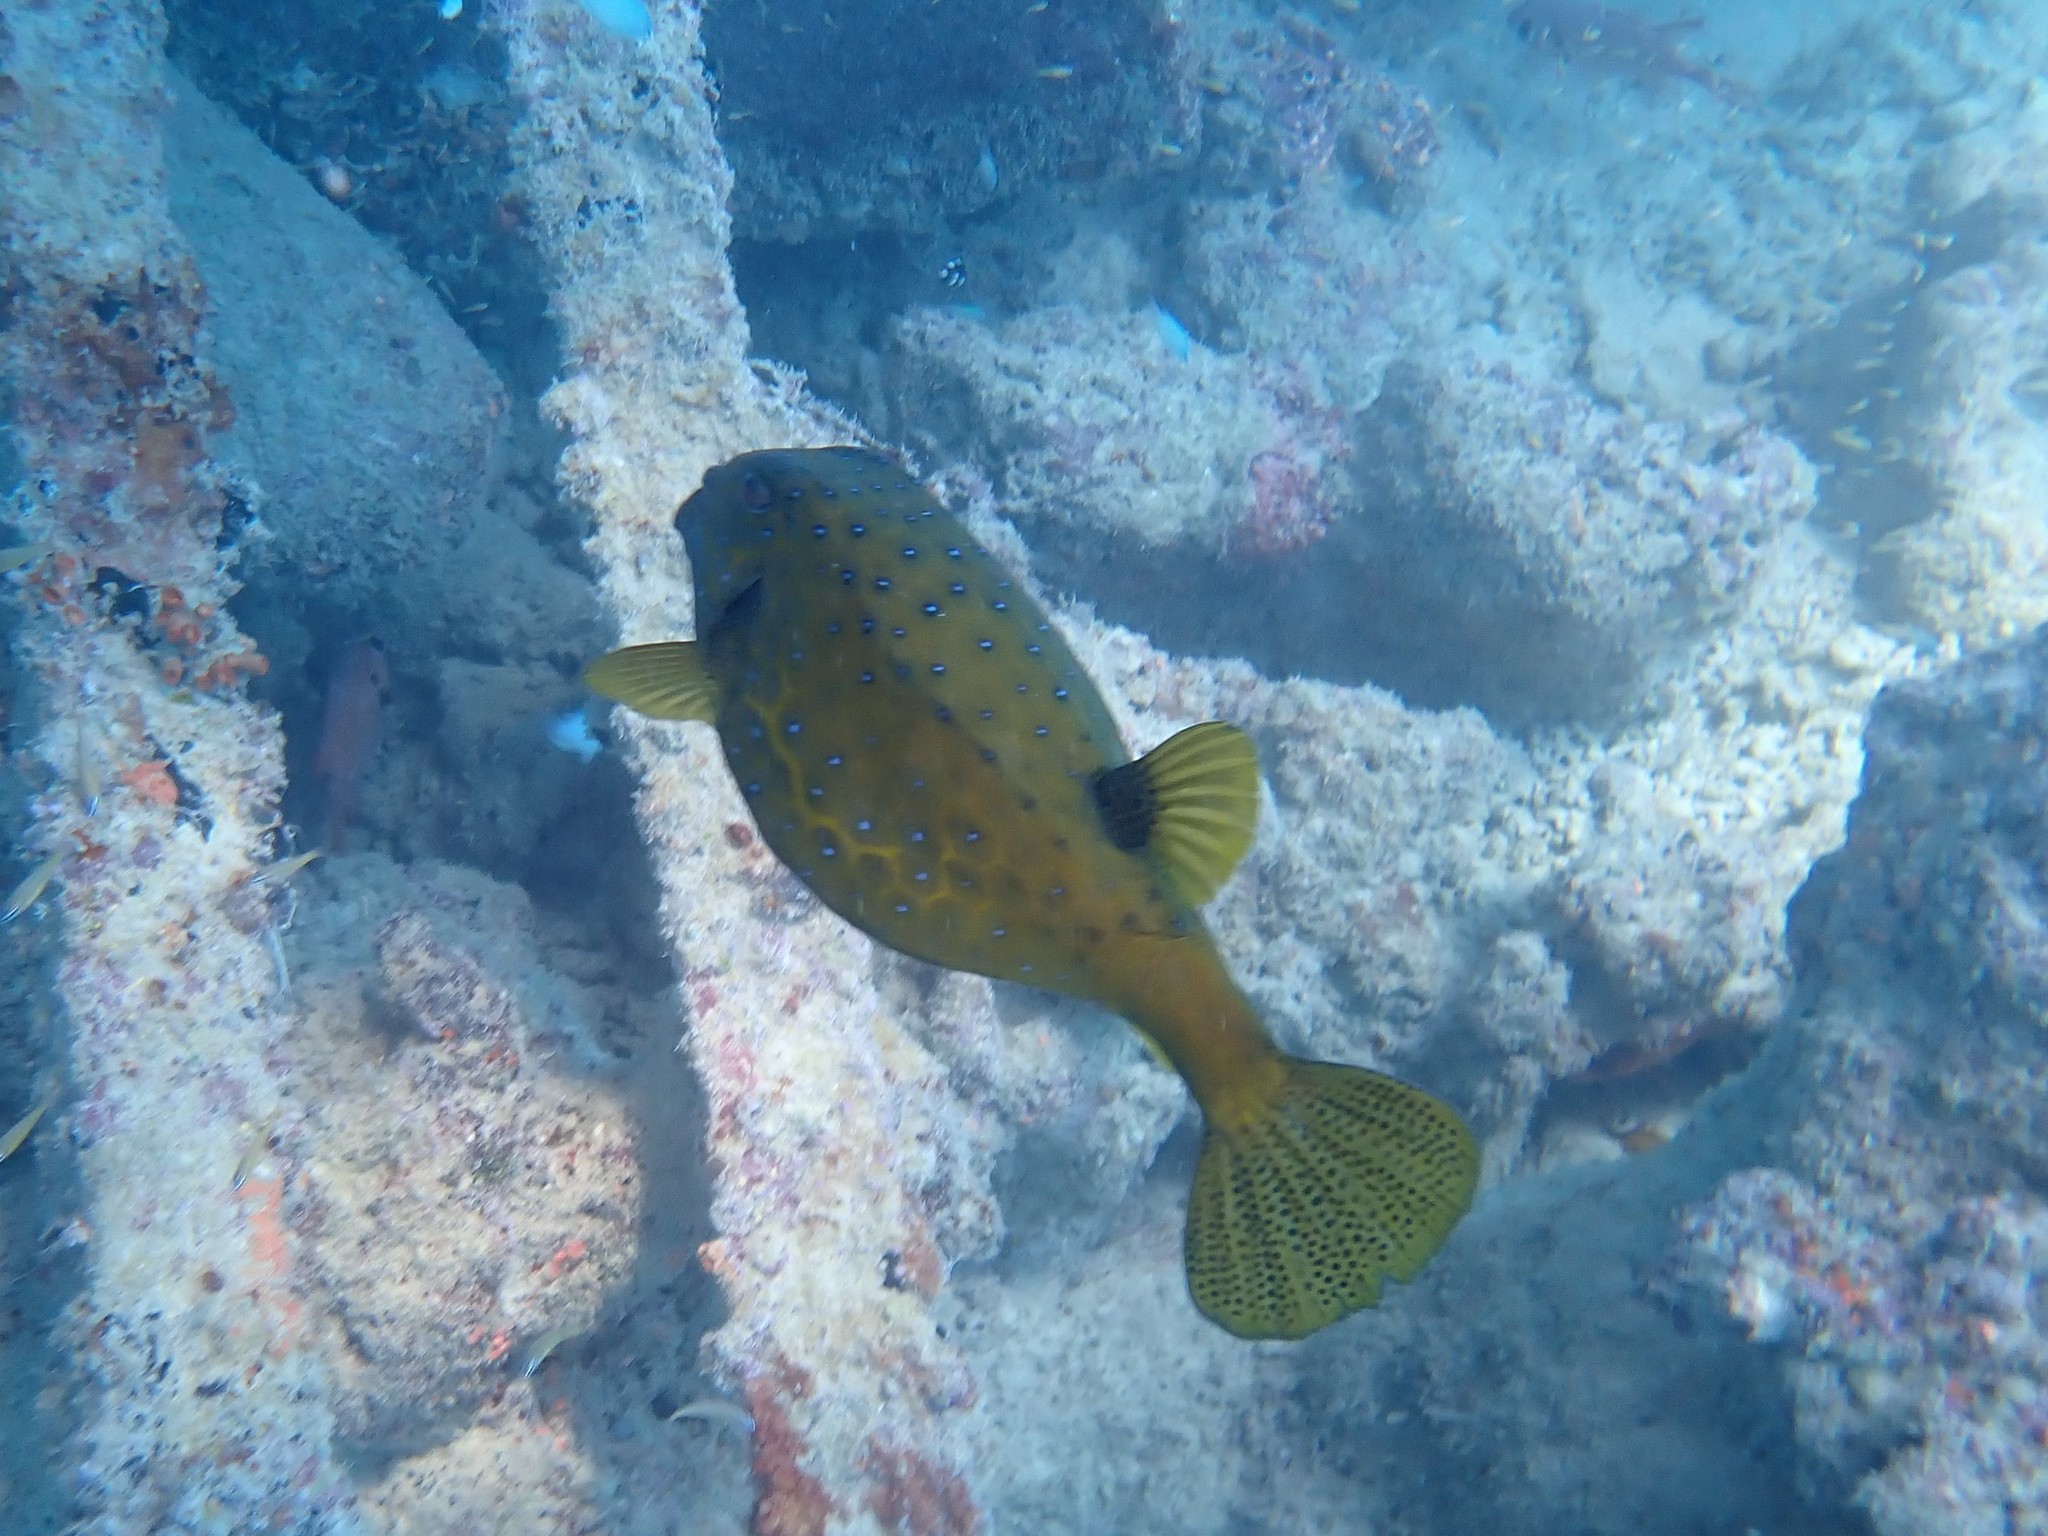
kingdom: Animalia
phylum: Chordata
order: Tetraodontiformes
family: Ostraciidae
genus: Ostracion
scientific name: Ostracion cubicus
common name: Cube trunkfish
